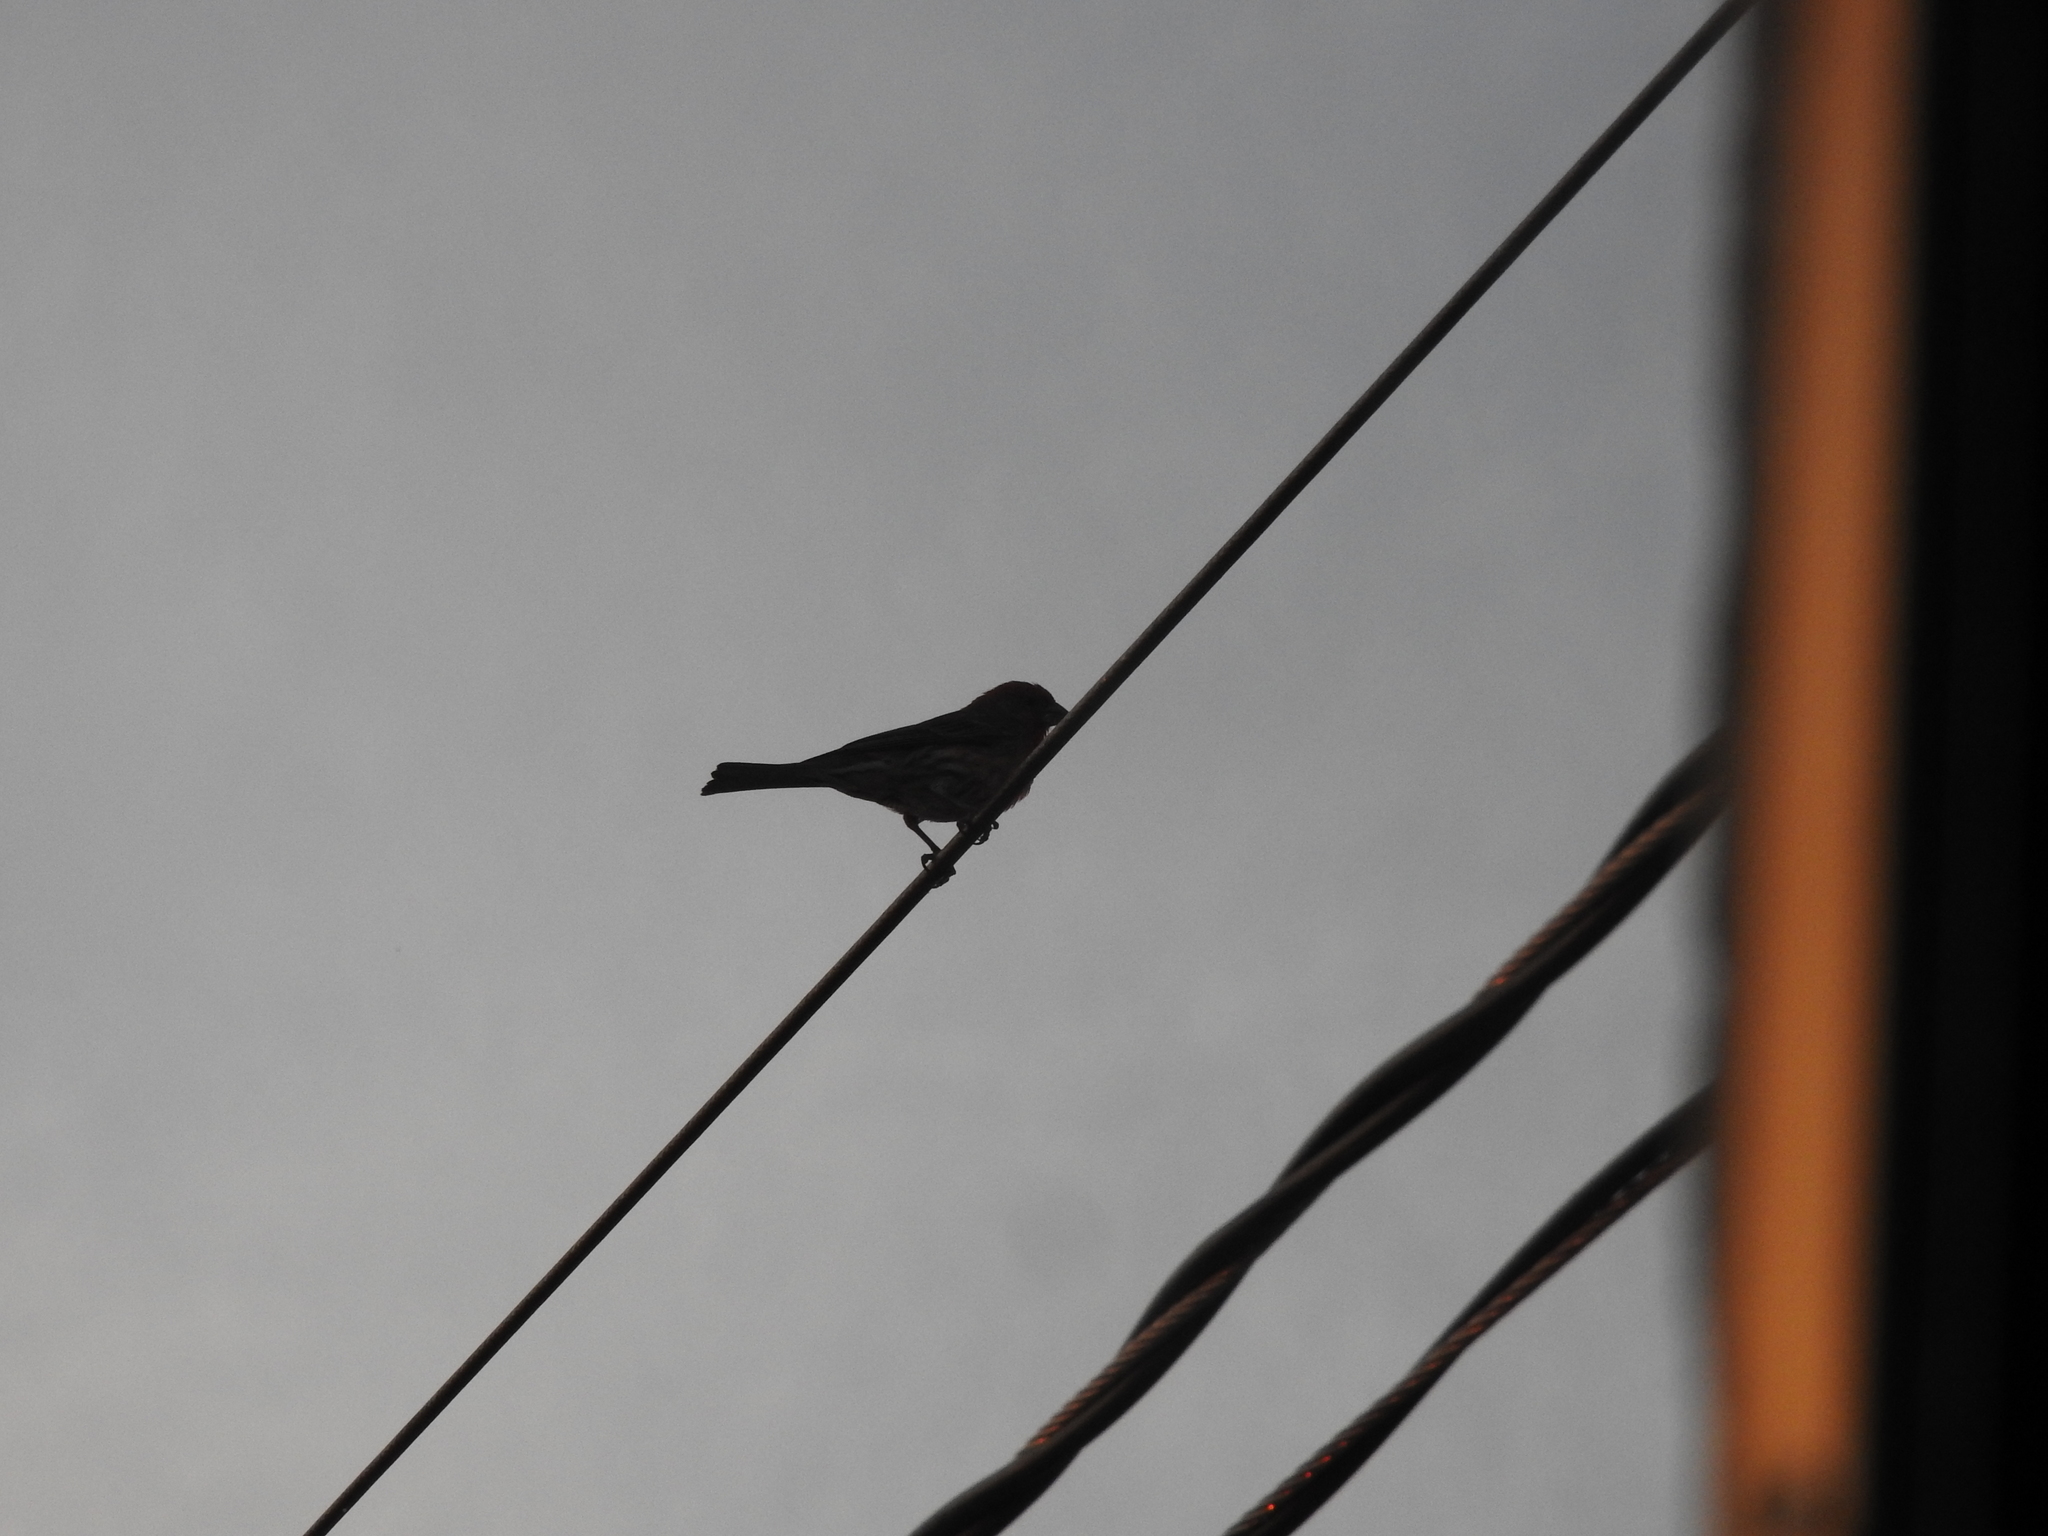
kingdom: Animalia
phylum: Chordata
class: Aves
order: Passeriformes
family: Fringillidae
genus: Haemorhous
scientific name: Haemorhous mexicanus
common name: House finch
